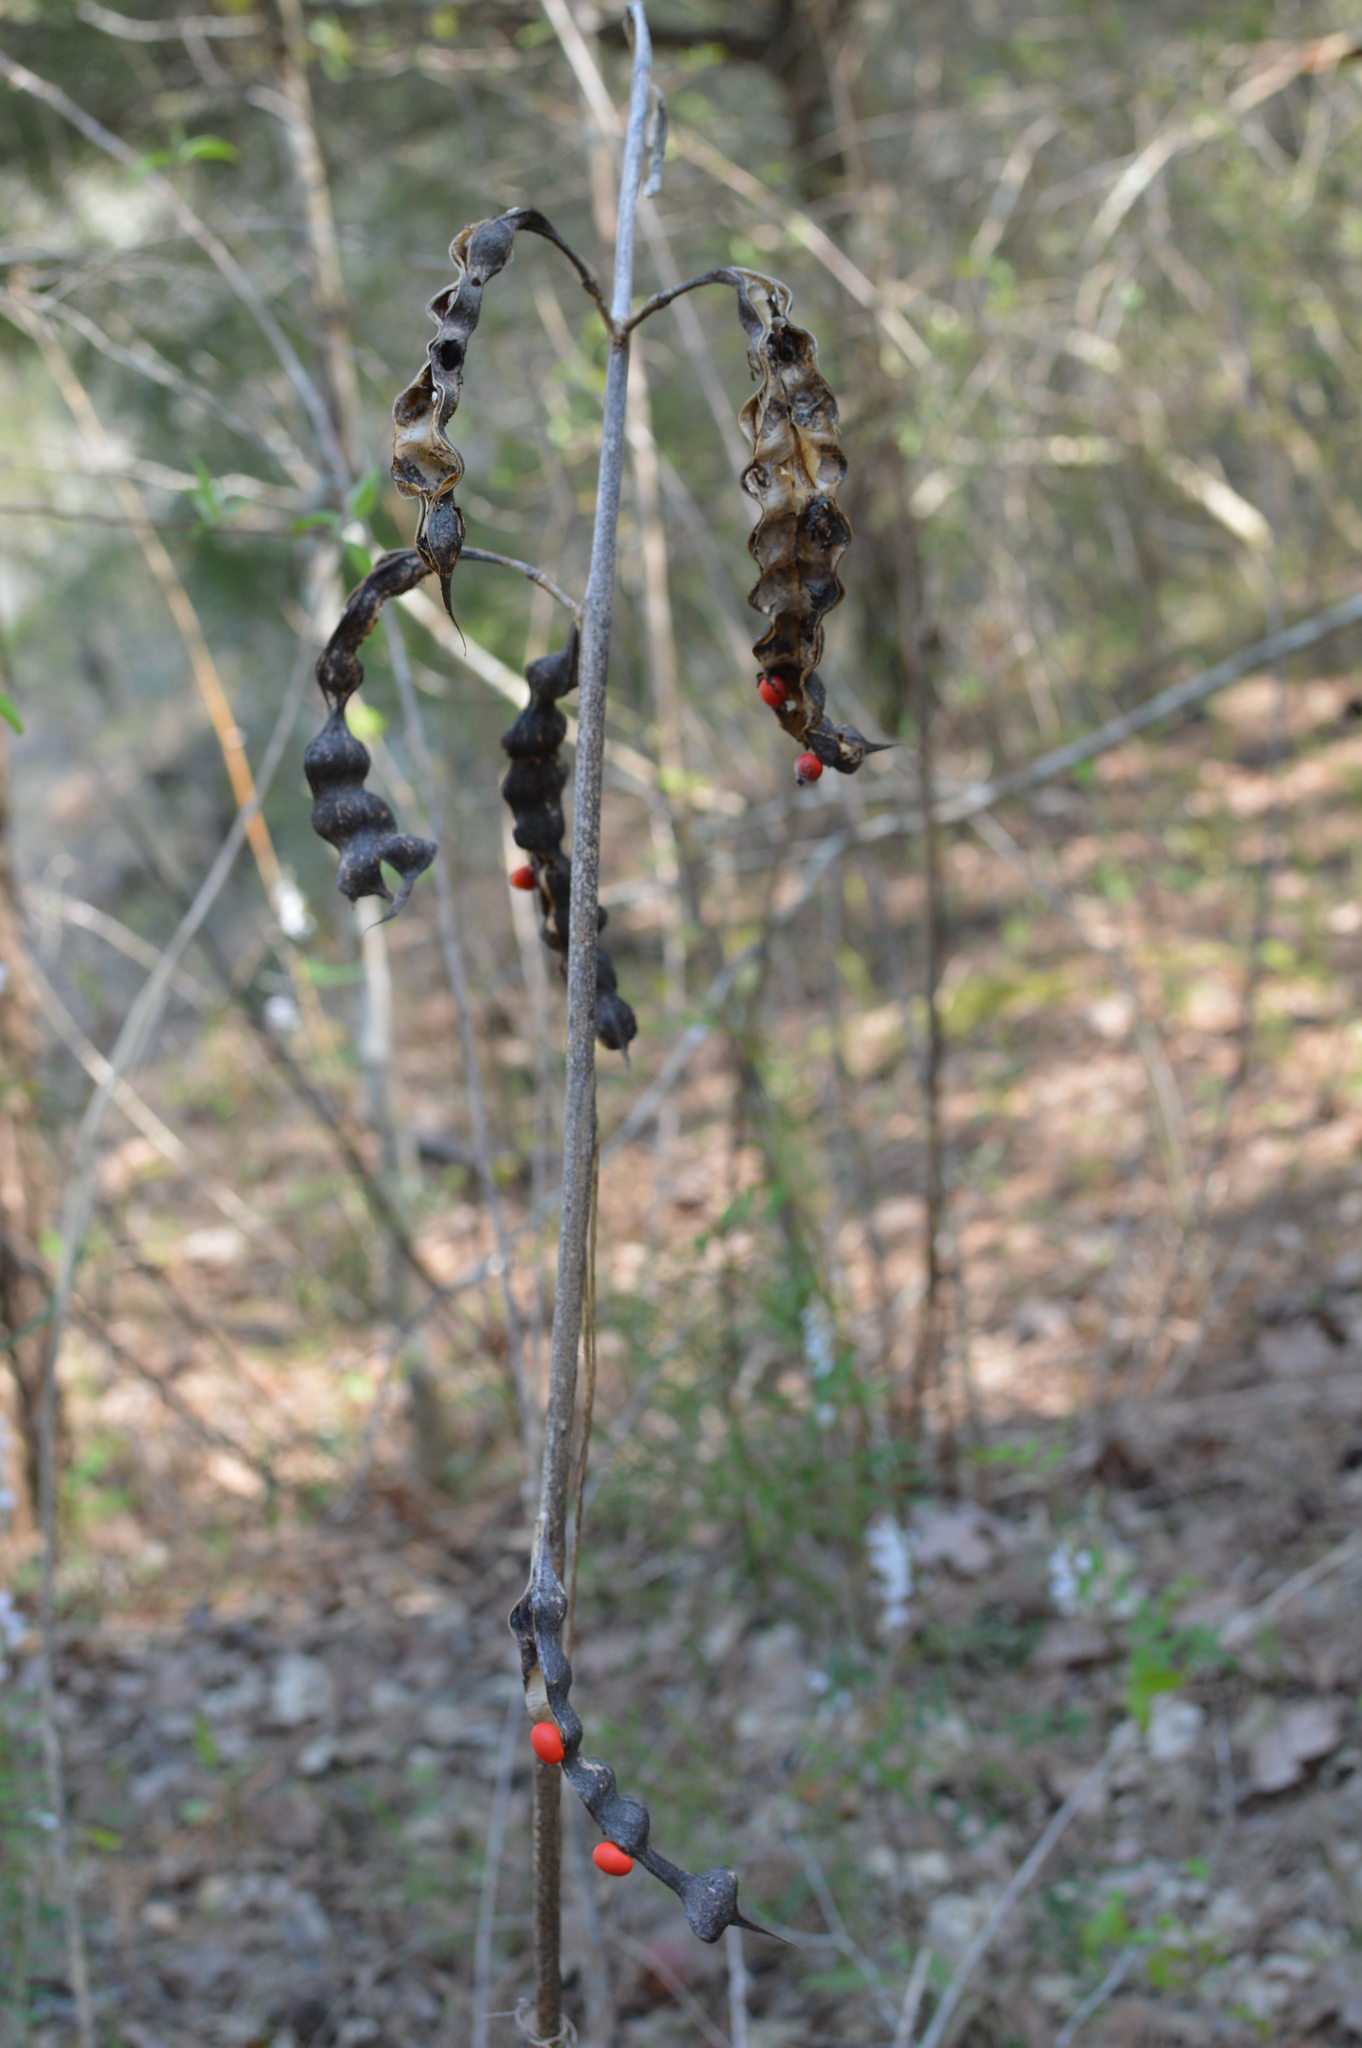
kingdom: Plantae
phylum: Tracheophyta
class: Magnoliopsida
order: Fabales
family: Fabaceae
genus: Erythrina
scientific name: Erythrina herbacea
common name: Coral-bean
